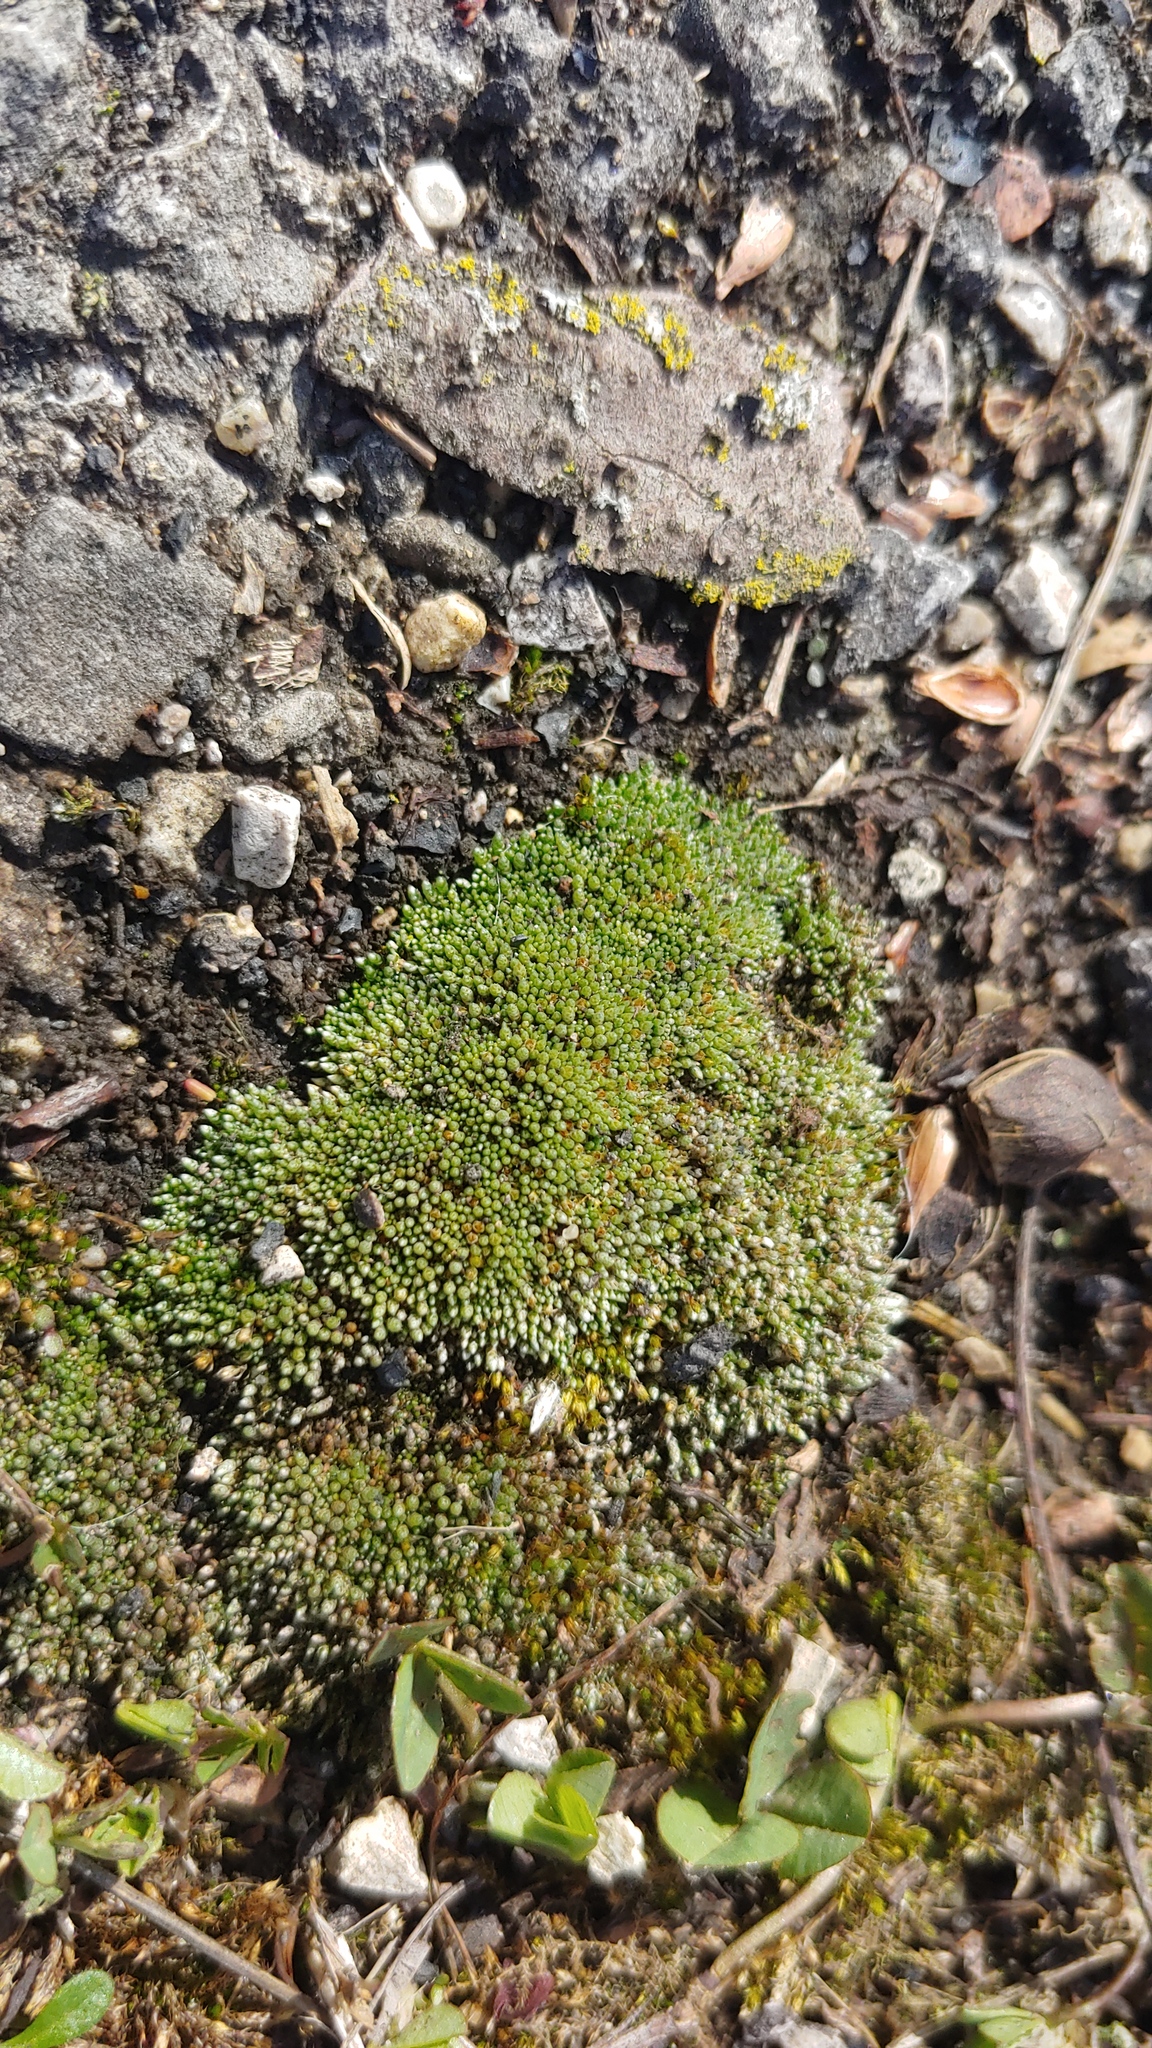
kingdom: Plantae
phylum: Bryophyta
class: Bryopsida
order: Bryales
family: Bryaceae
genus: Bryum
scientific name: Bryum argenteum
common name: Silver-moss
